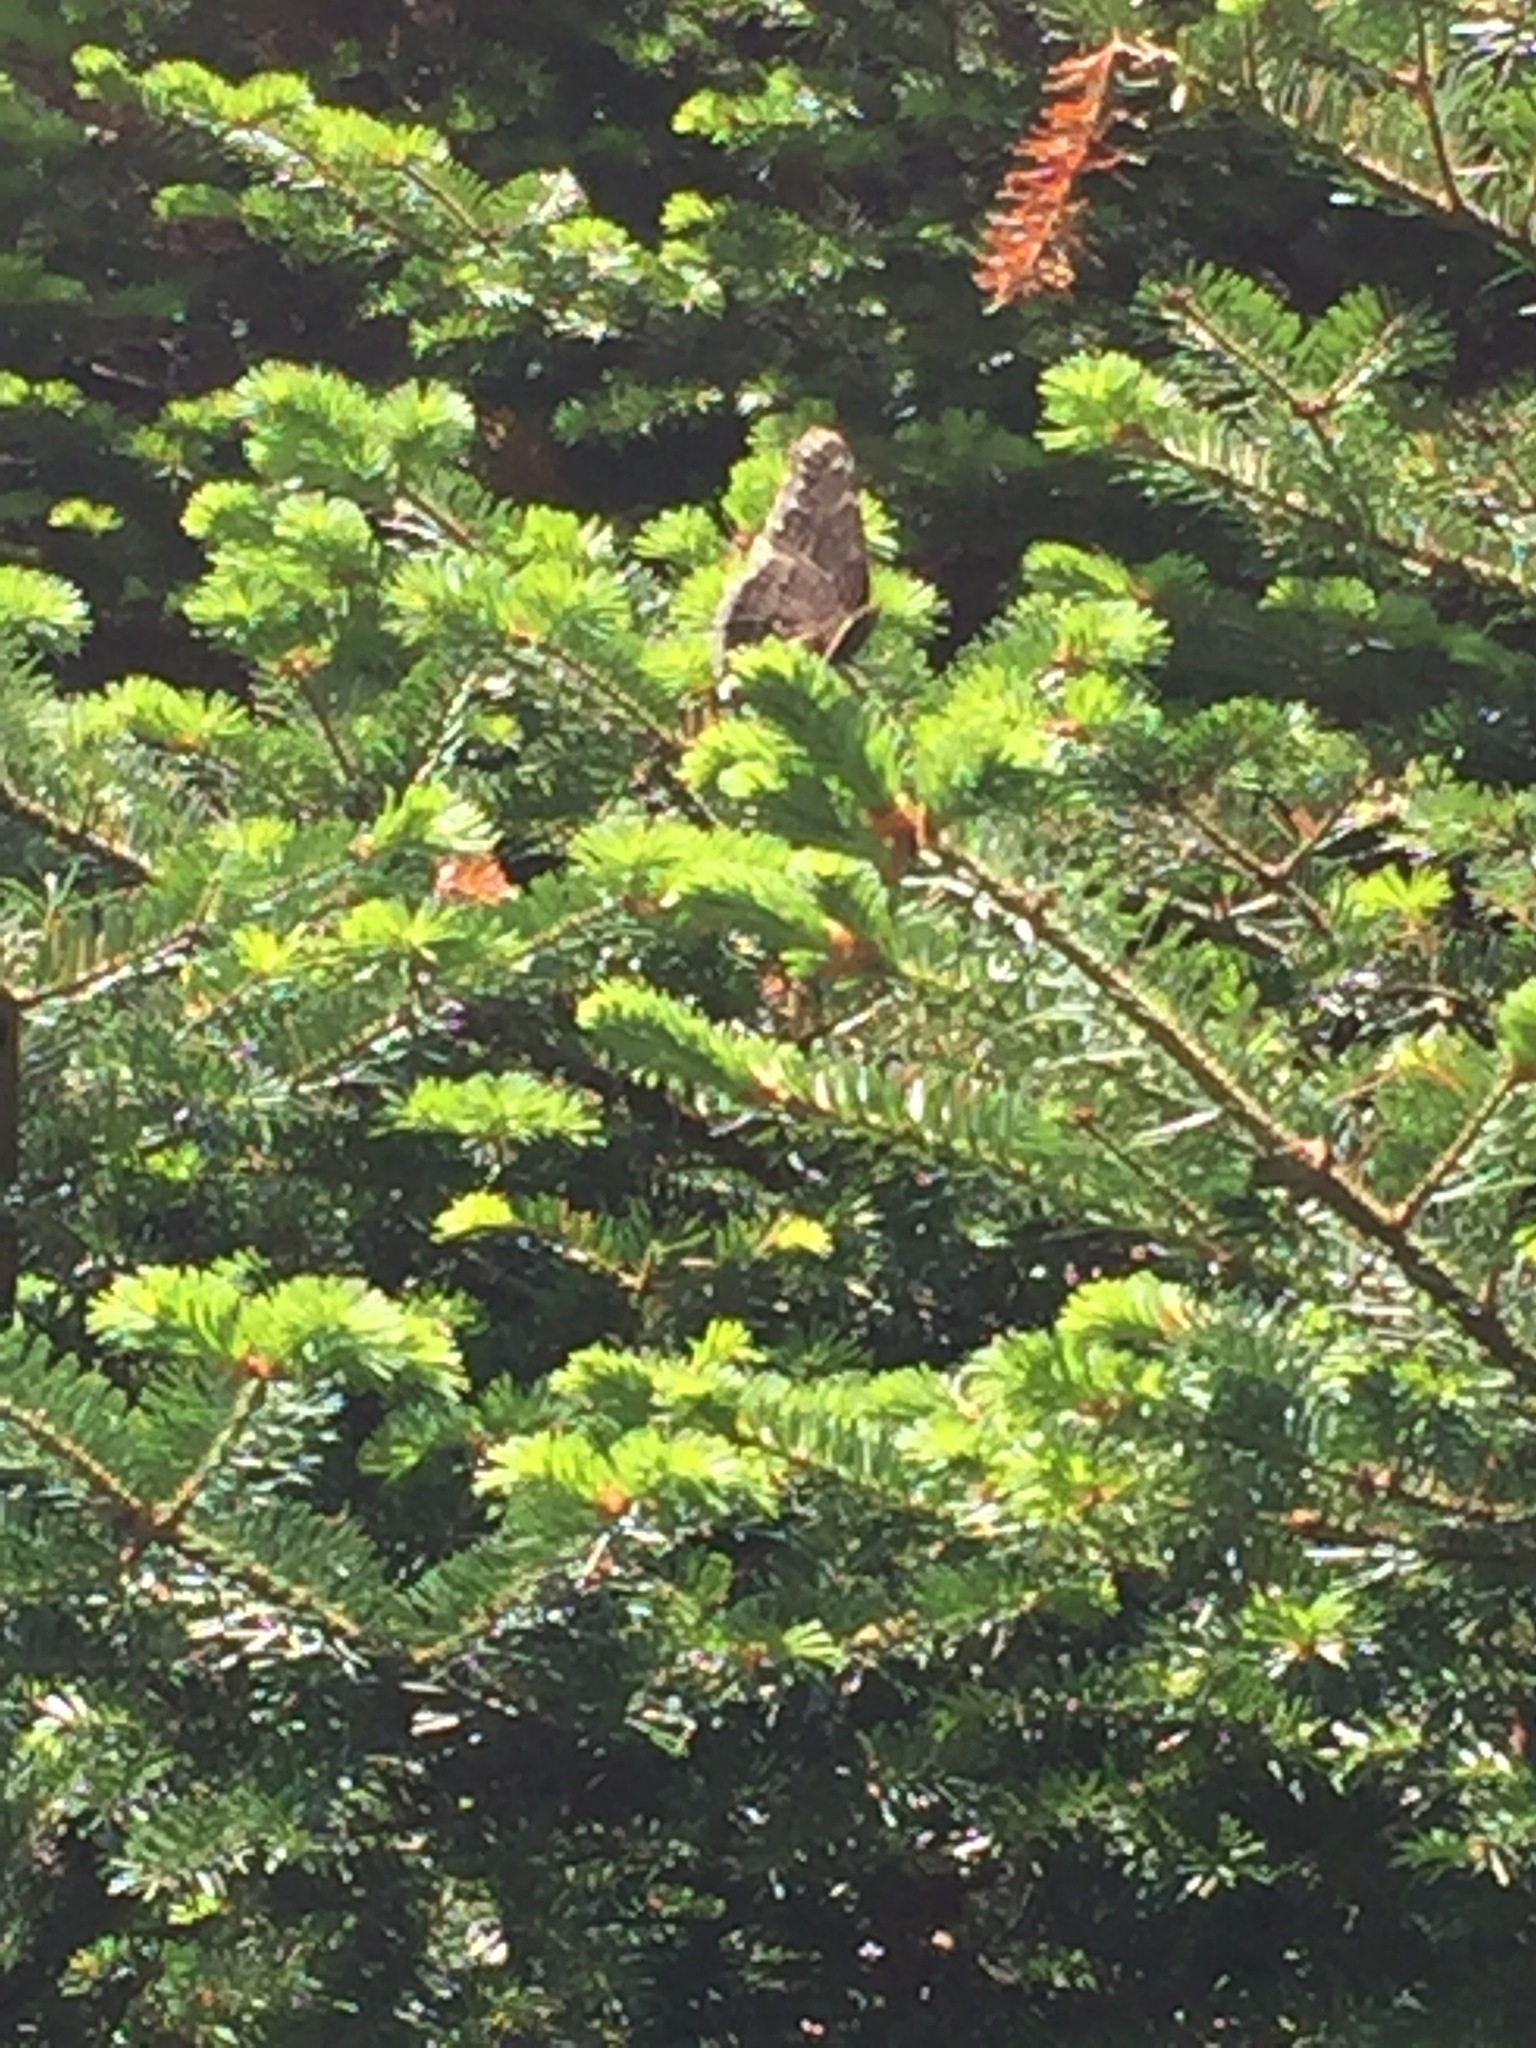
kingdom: Animalia
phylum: Arthropoda
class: Insecta
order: Lepidoptera
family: Nymphalidae
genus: Nymphalis
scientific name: Nymphalis antiopa
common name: Camberwell beauty
